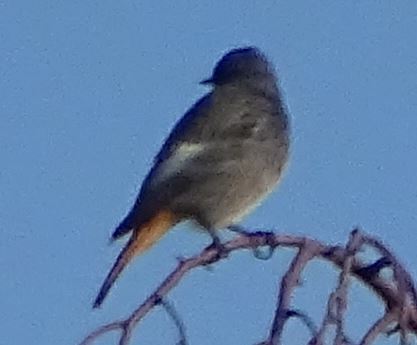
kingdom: Animalia
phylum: Chordata
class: Aves
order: Passeriformes
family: Muscicapidae
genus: Phoenicurus
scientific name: Phoenicurus ochruros
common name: Black redstart
